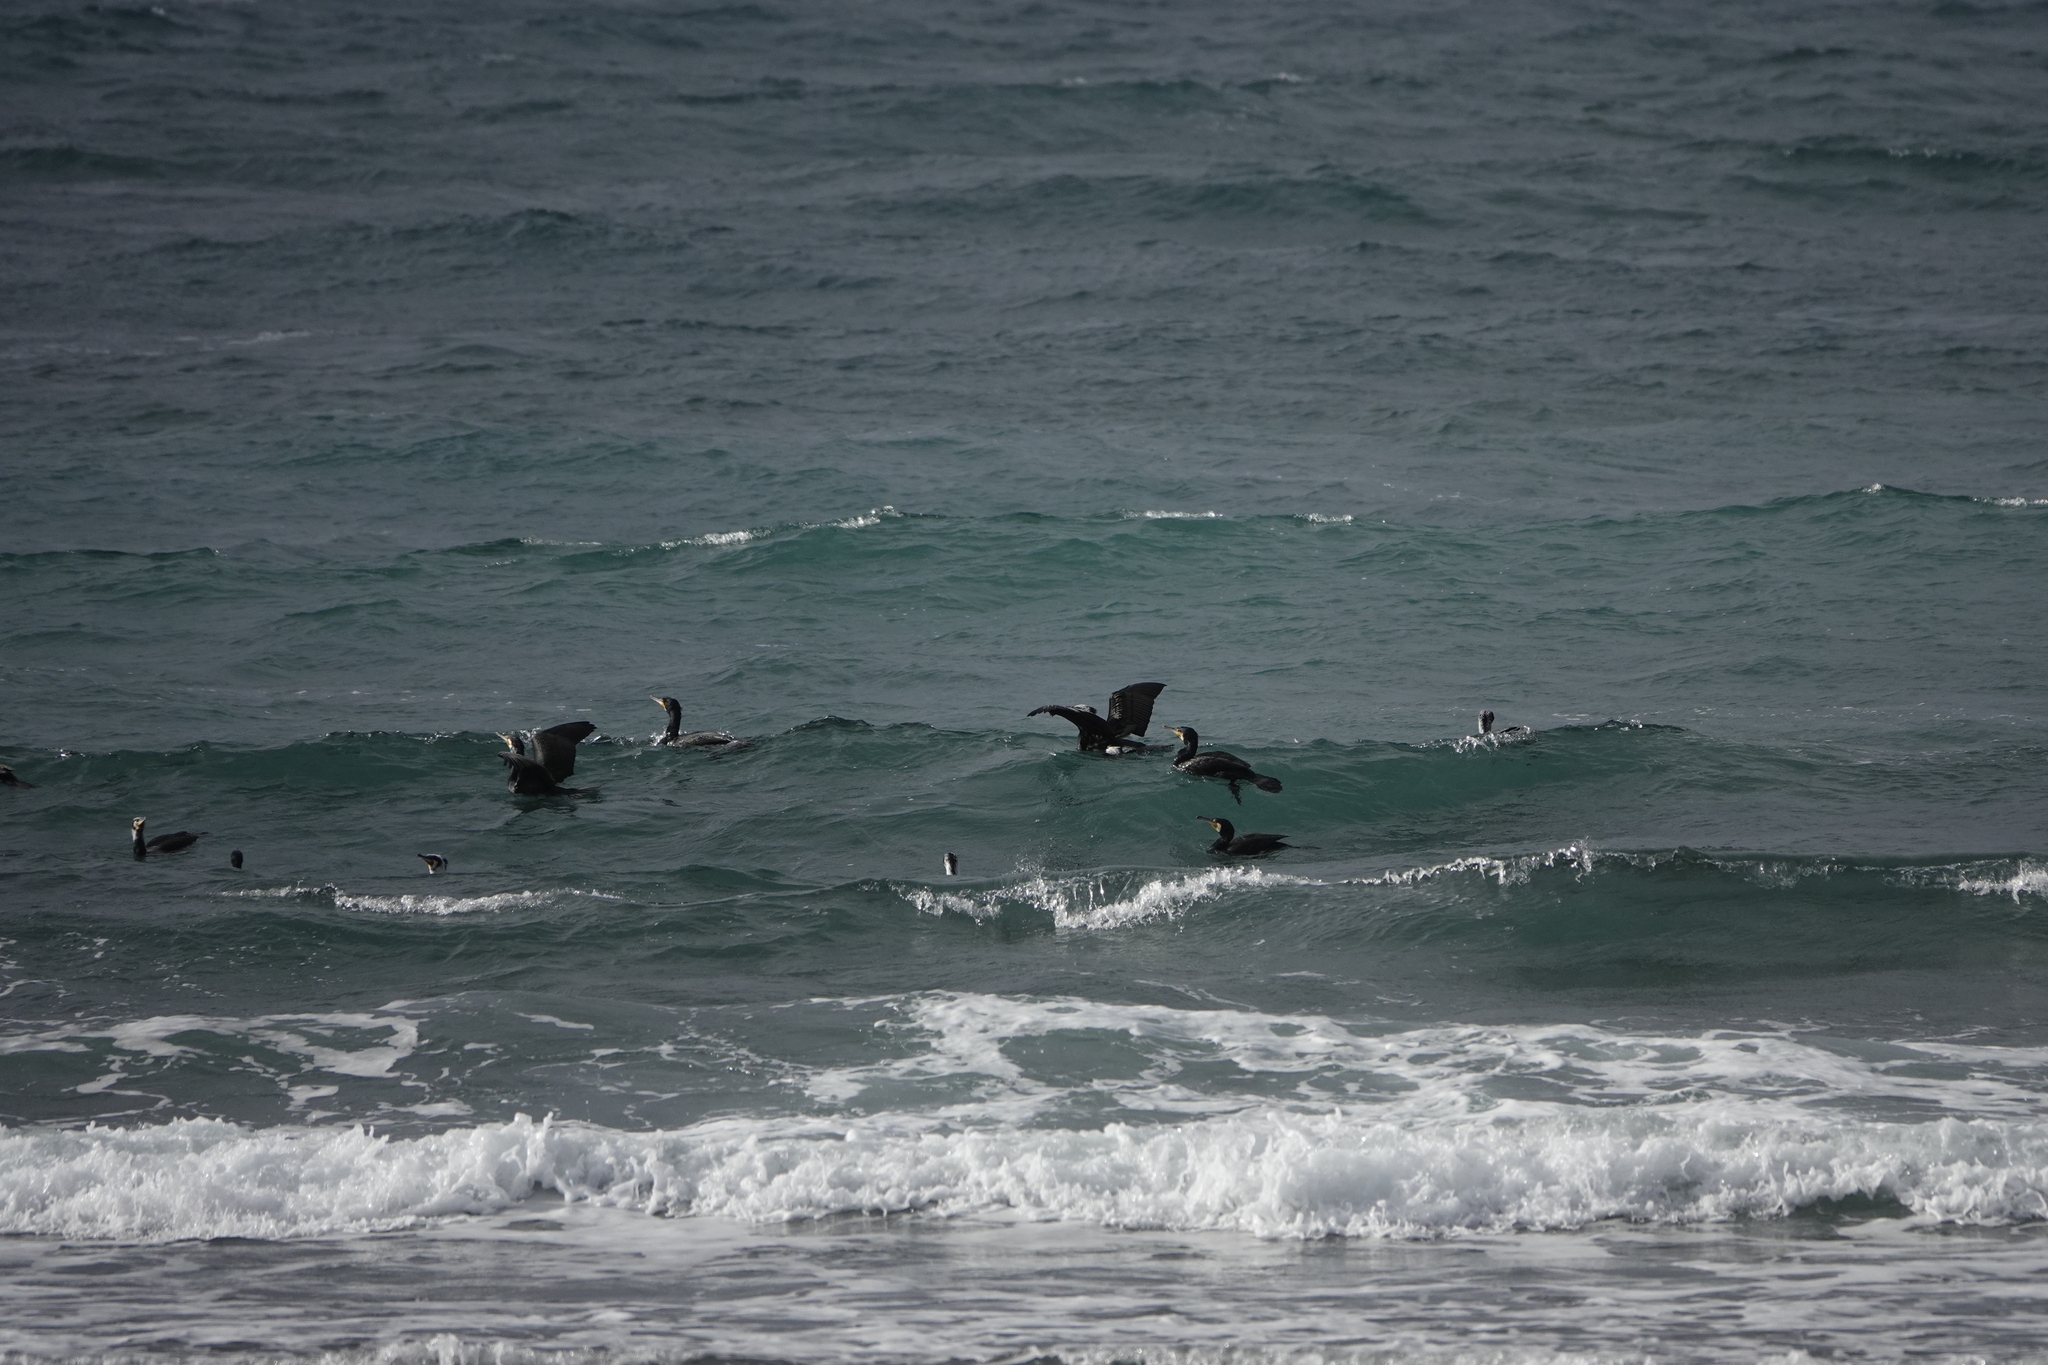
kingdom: Animalia
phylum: Chordata
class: Aves
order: Suliformes
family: Phalacrocoracidae
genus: Phalacrocorax
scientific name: Phalacrocorax carbo
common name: Great cormorant
